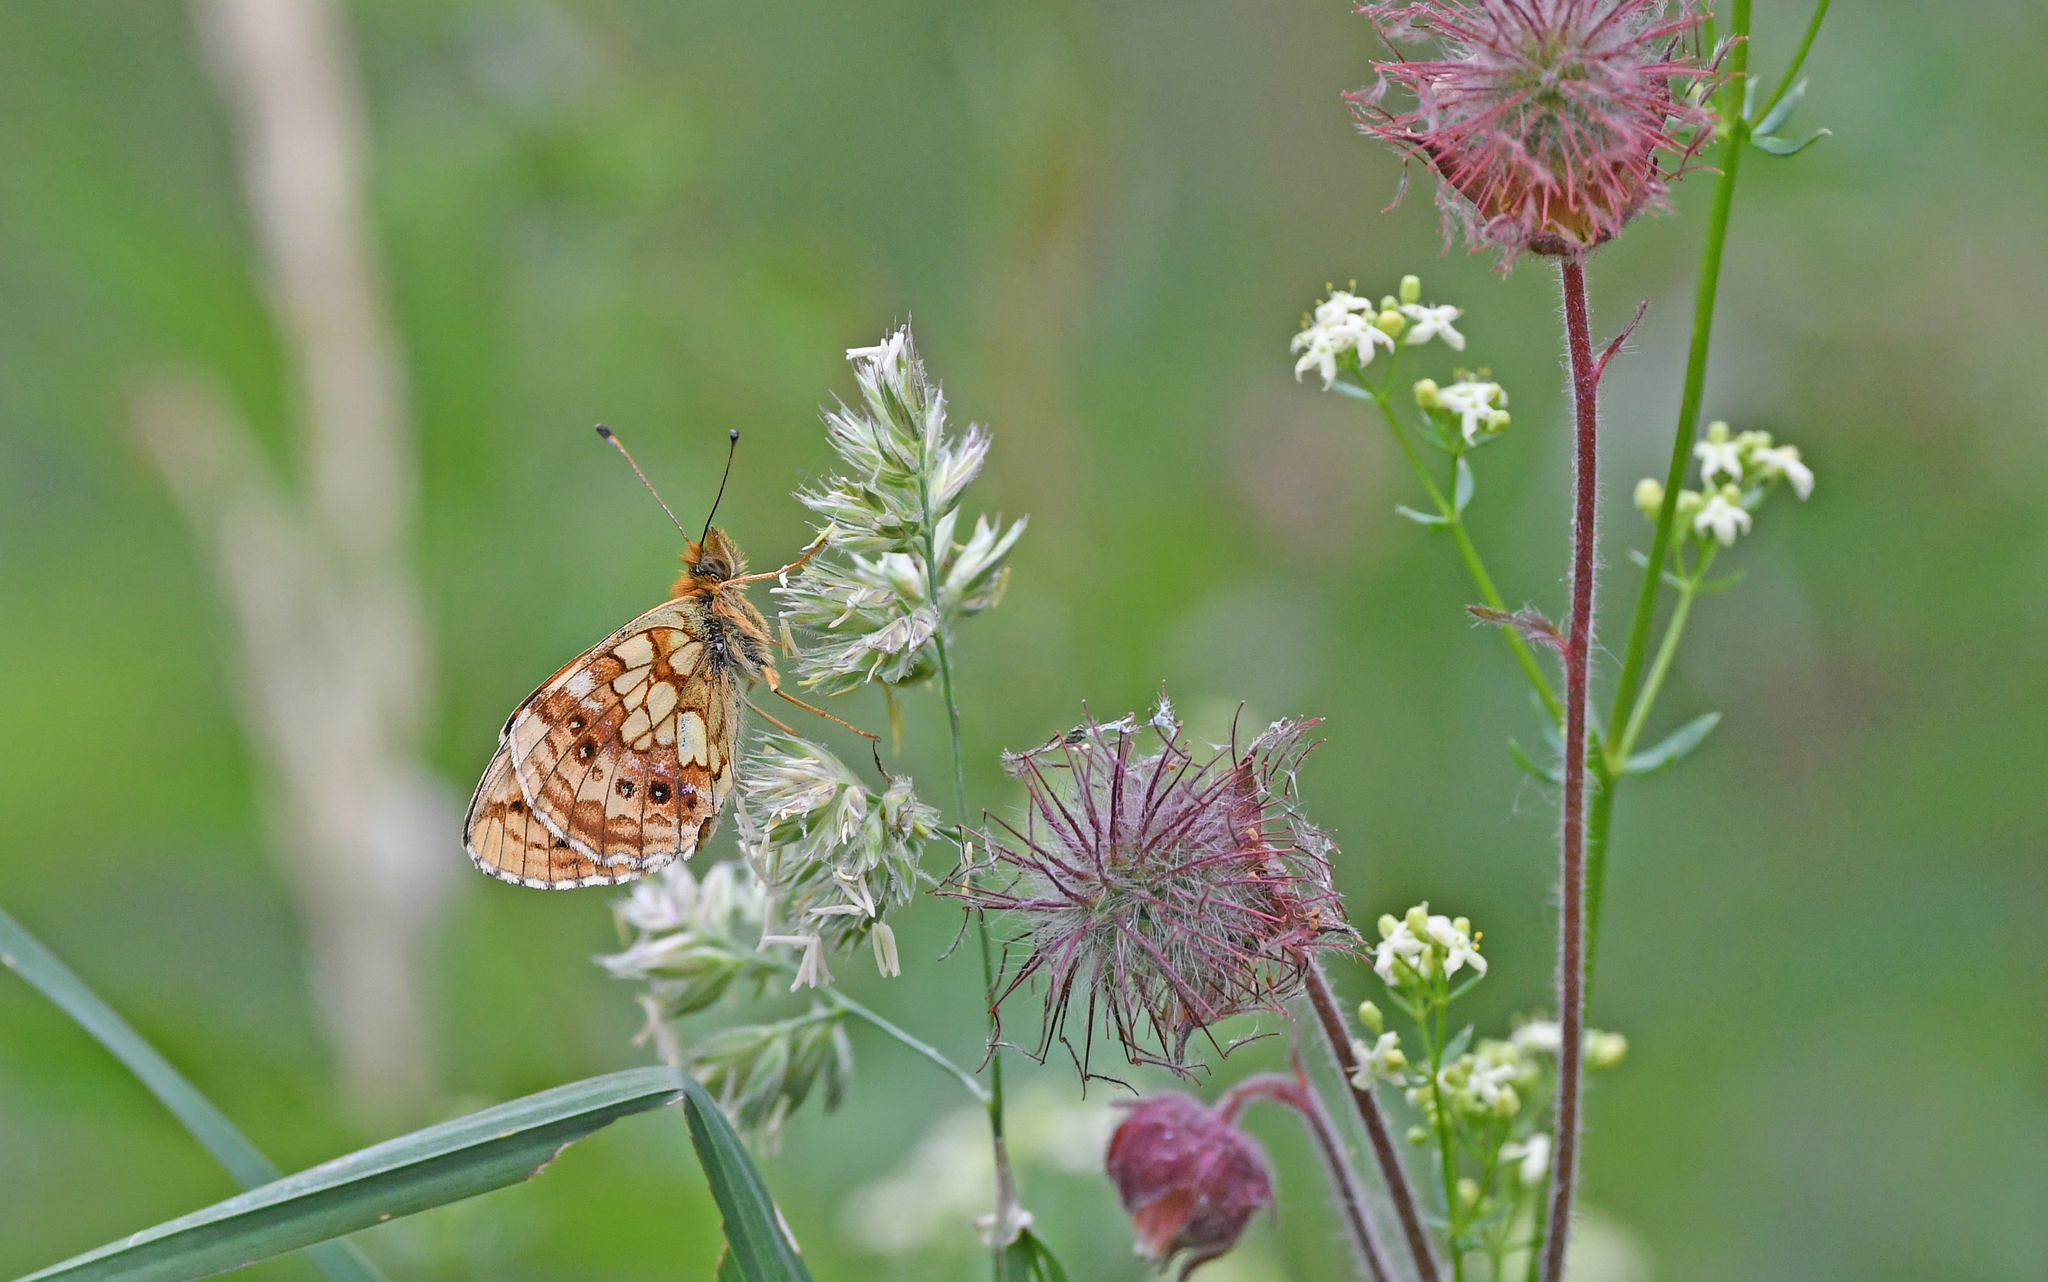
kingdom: Animalia
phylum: Arthropoda
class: Insecta
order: Lepidoptera
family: Nymphalidae
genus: Brenthis
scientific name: Brenthis ino
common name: Lesser marbled fritillary
